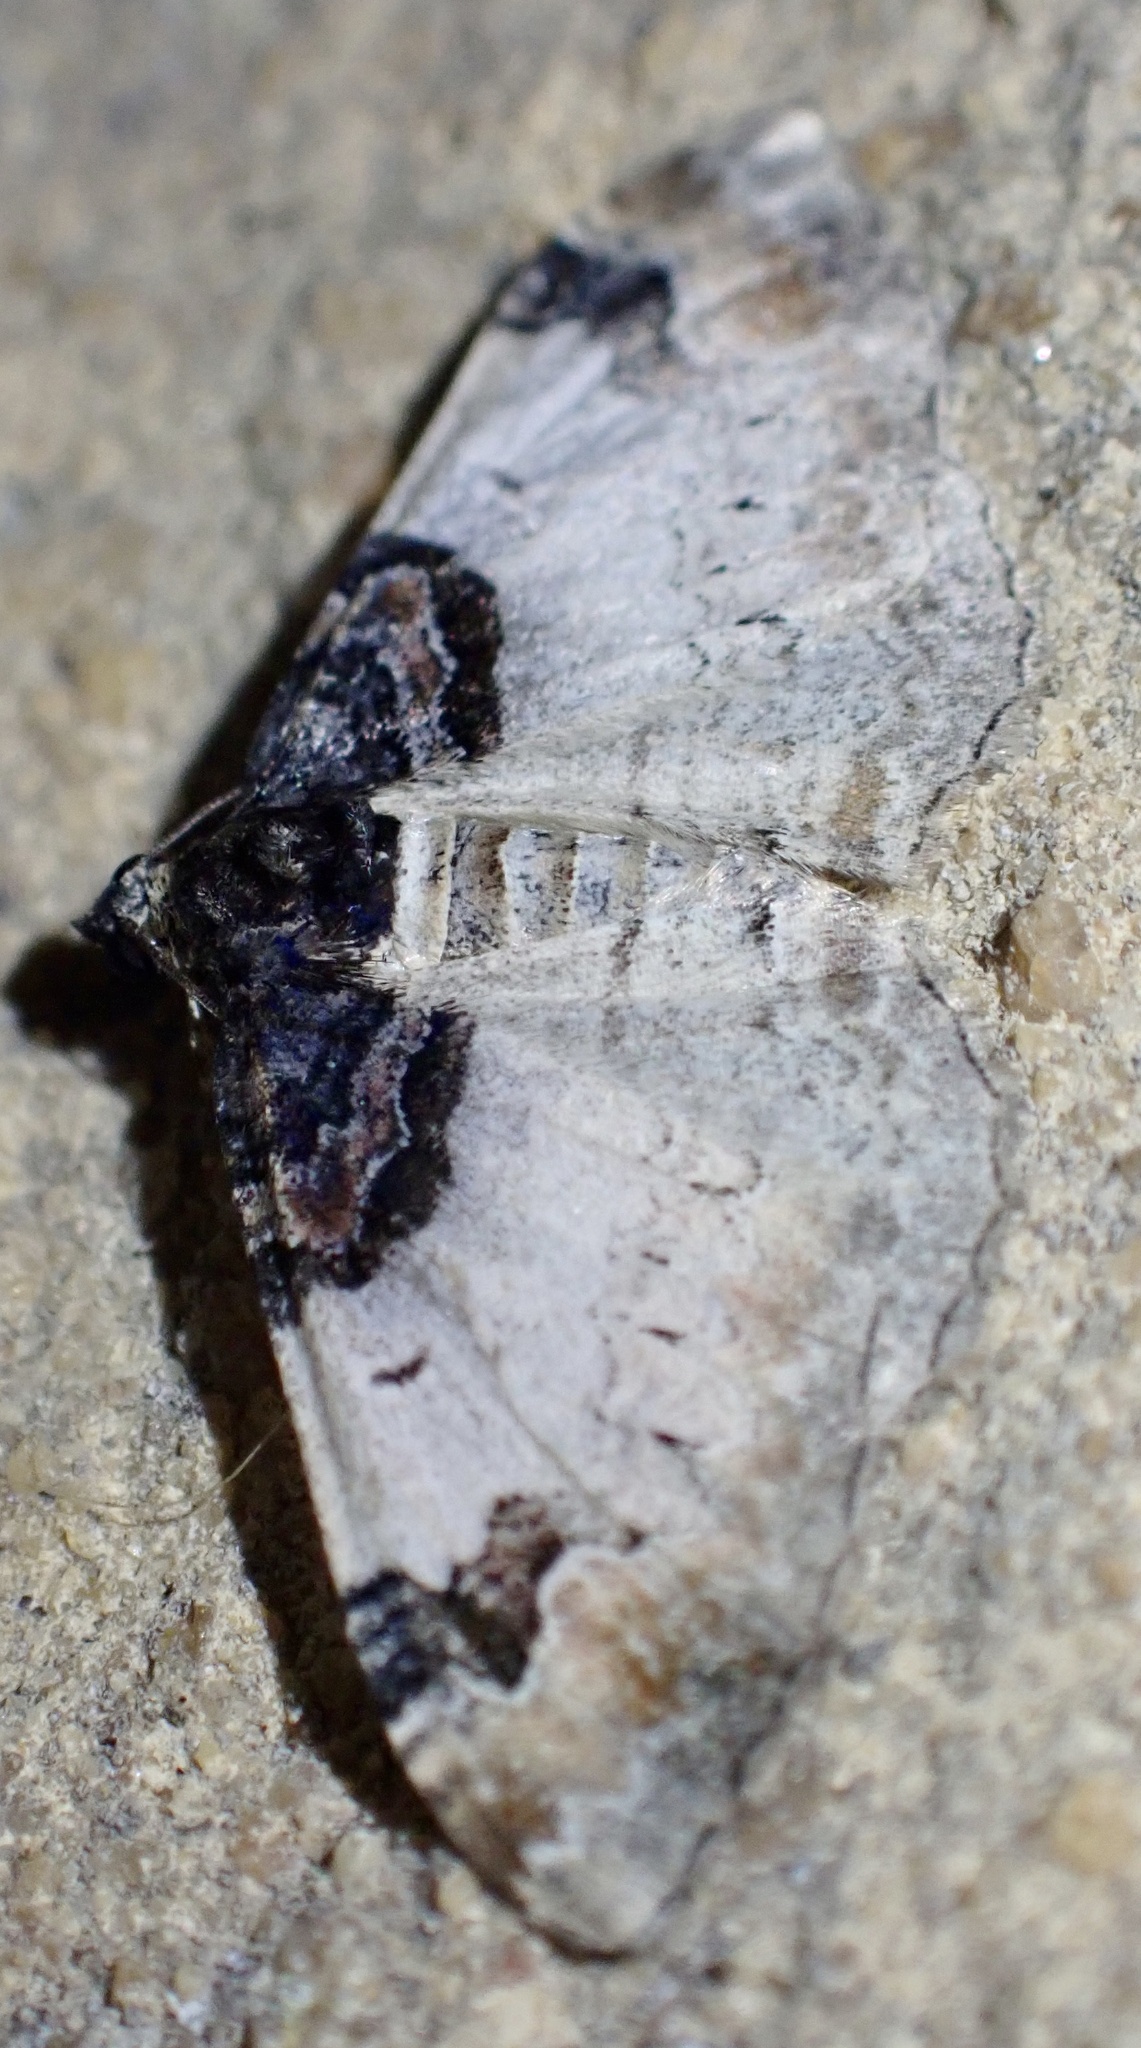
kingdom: Animalia
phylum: Arthropoda
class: Insecta
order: Lepidoptera
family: Geometridae
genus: Catarhoe
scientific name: Catarhoe cuculata
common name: Royal mantle
